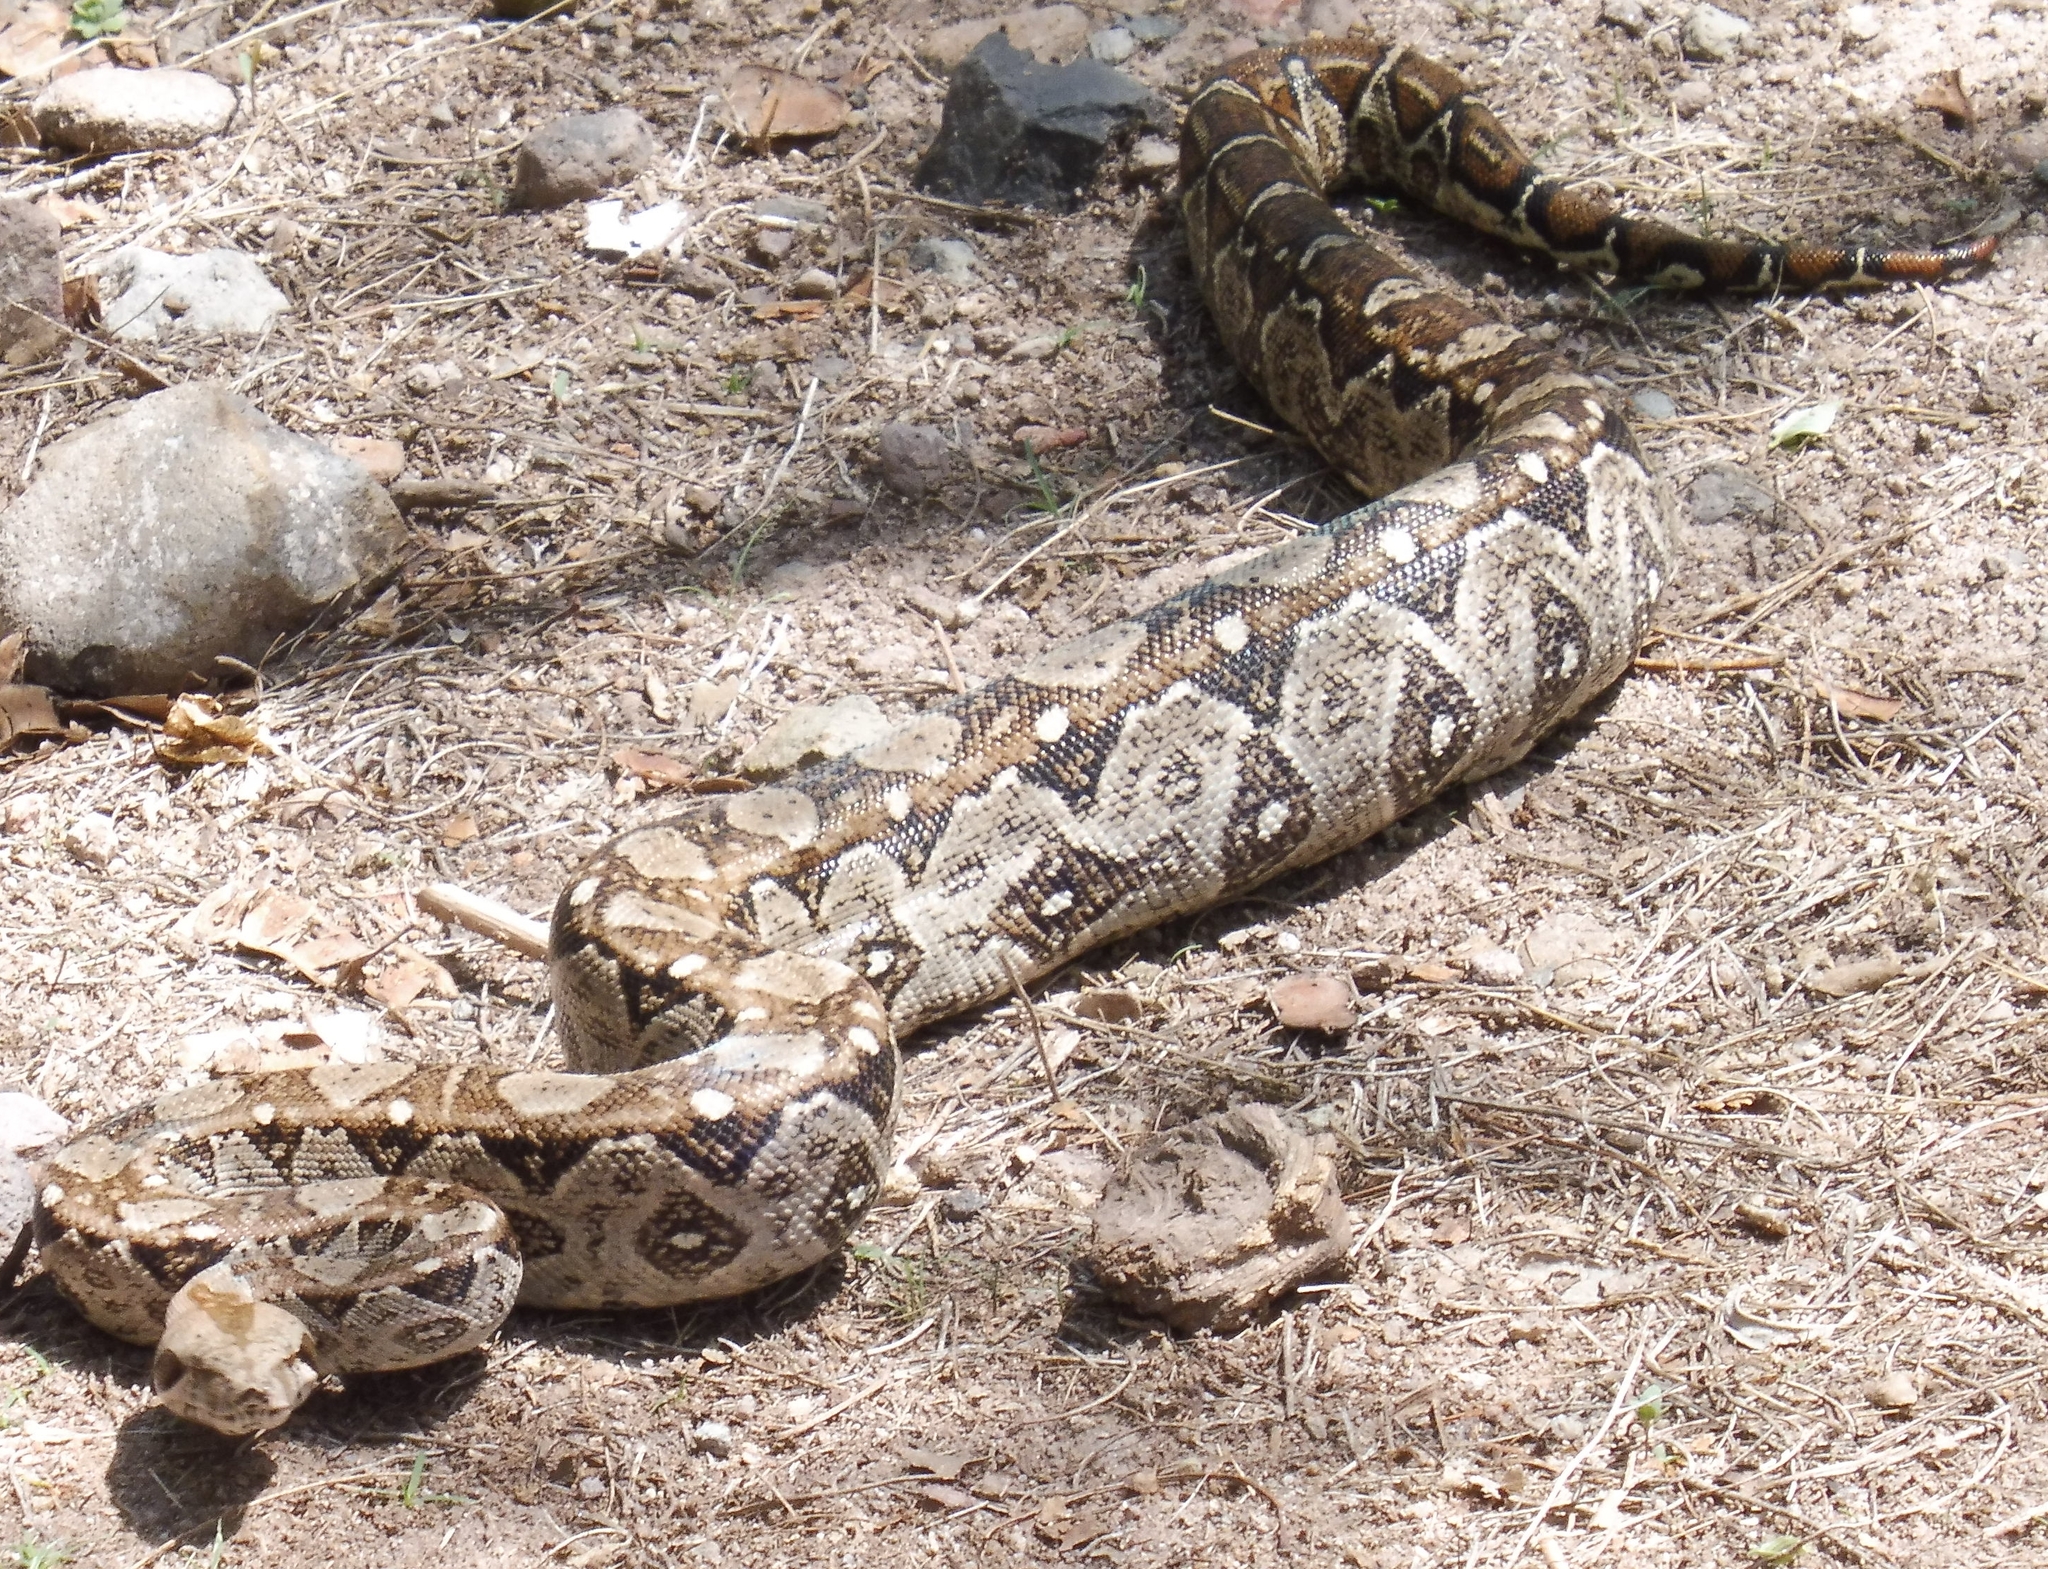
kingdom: Animalia
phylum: Chordata
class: Squamata
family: Boidae
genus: Boa
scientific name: Boa
